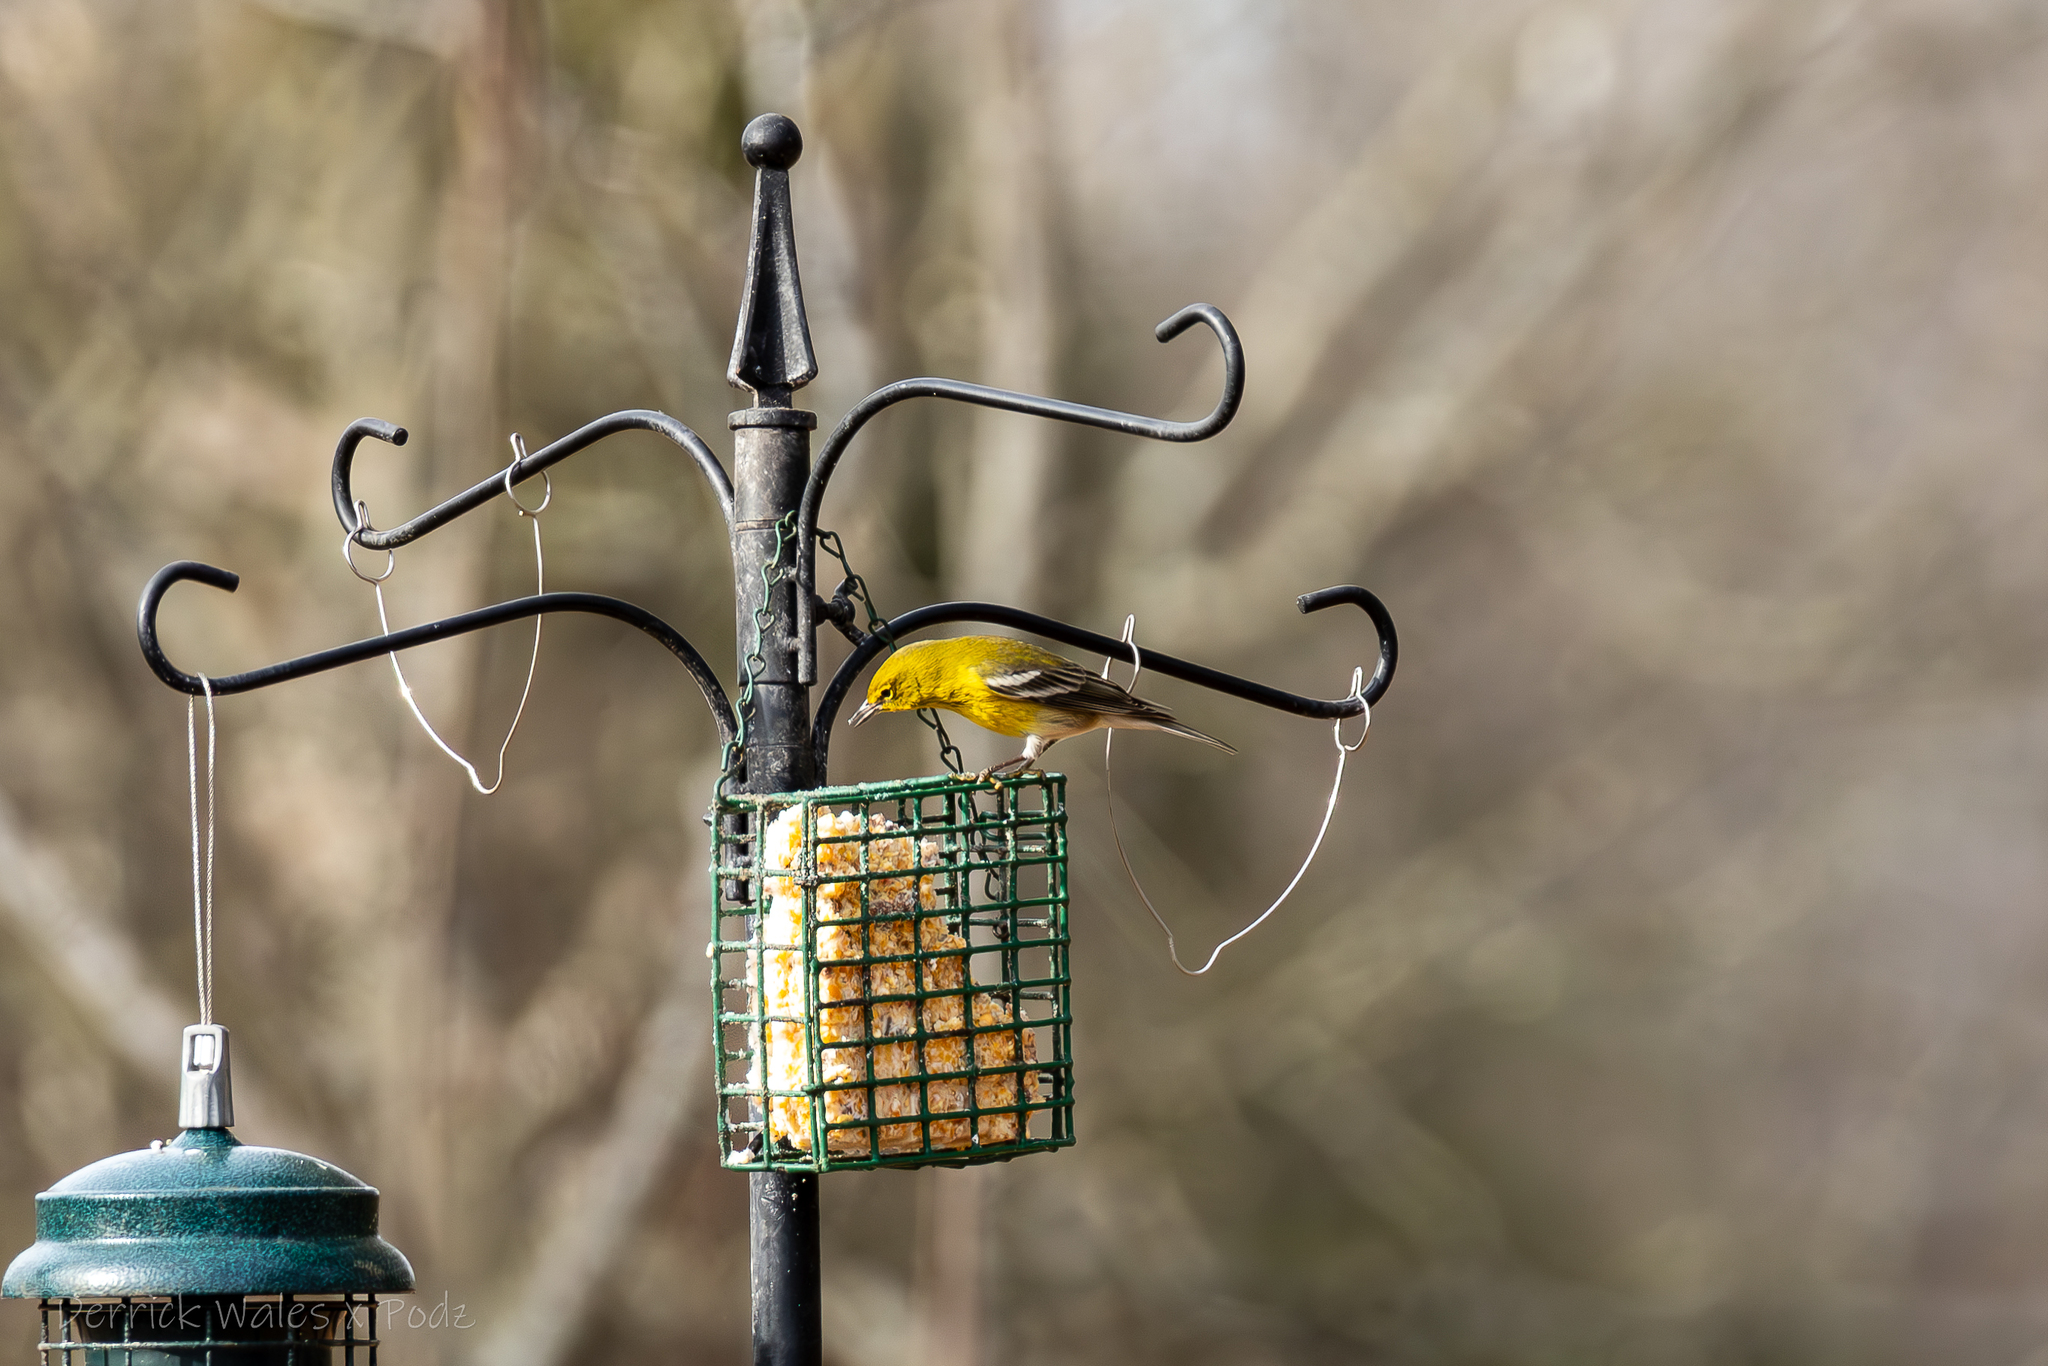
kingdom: Animalia
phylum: Chordata
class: Aves
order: Passeriformes
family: Parulidae
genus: Setophaga
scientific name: Setophaga pinus
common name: Pine warbler
